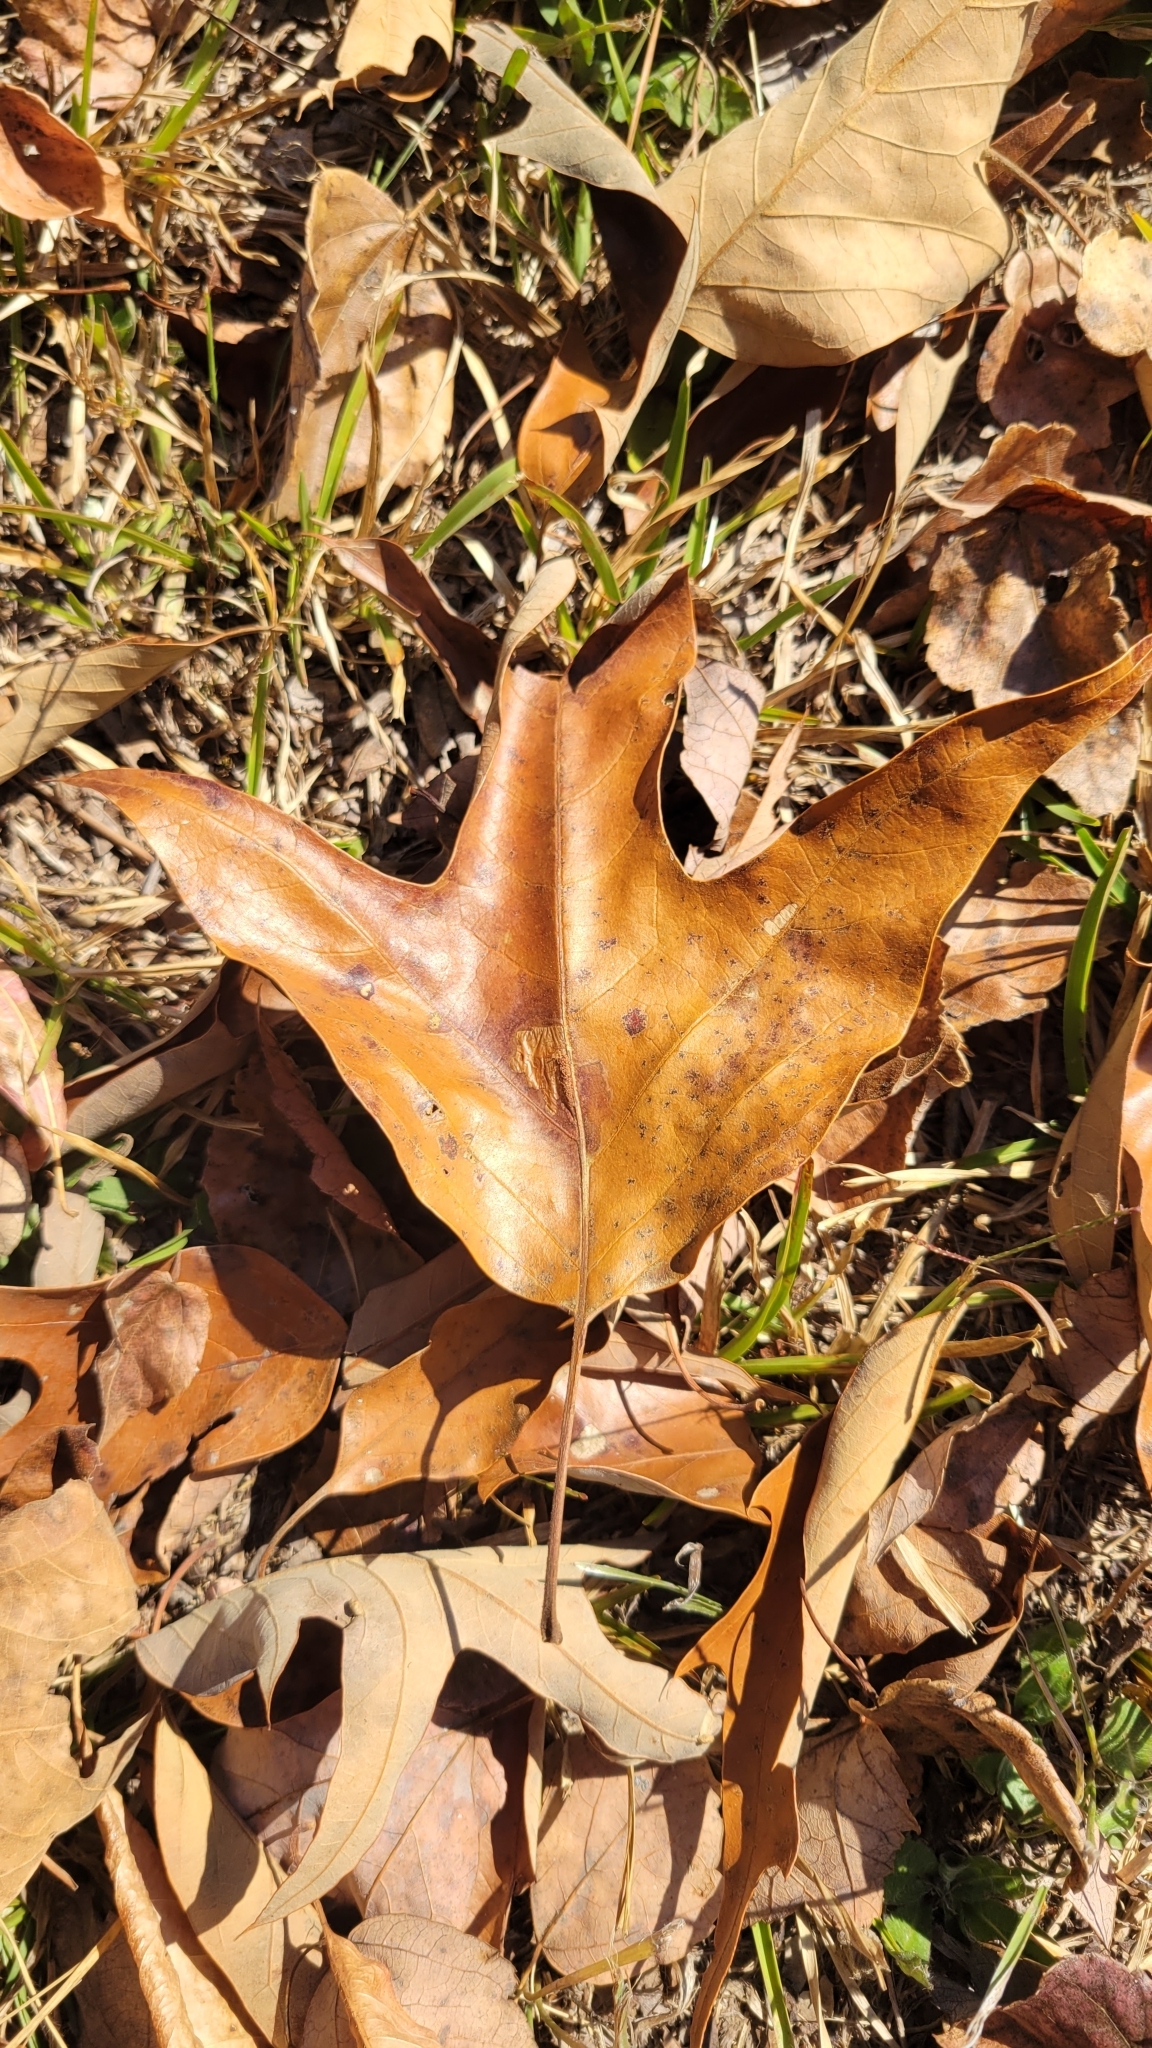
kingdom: Plantae
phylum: Tracheophyta
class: Magnoliopsida
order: Fagales
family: Fagaceae
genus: Quercus
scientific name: Quercus falcata
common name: Southern red oak
